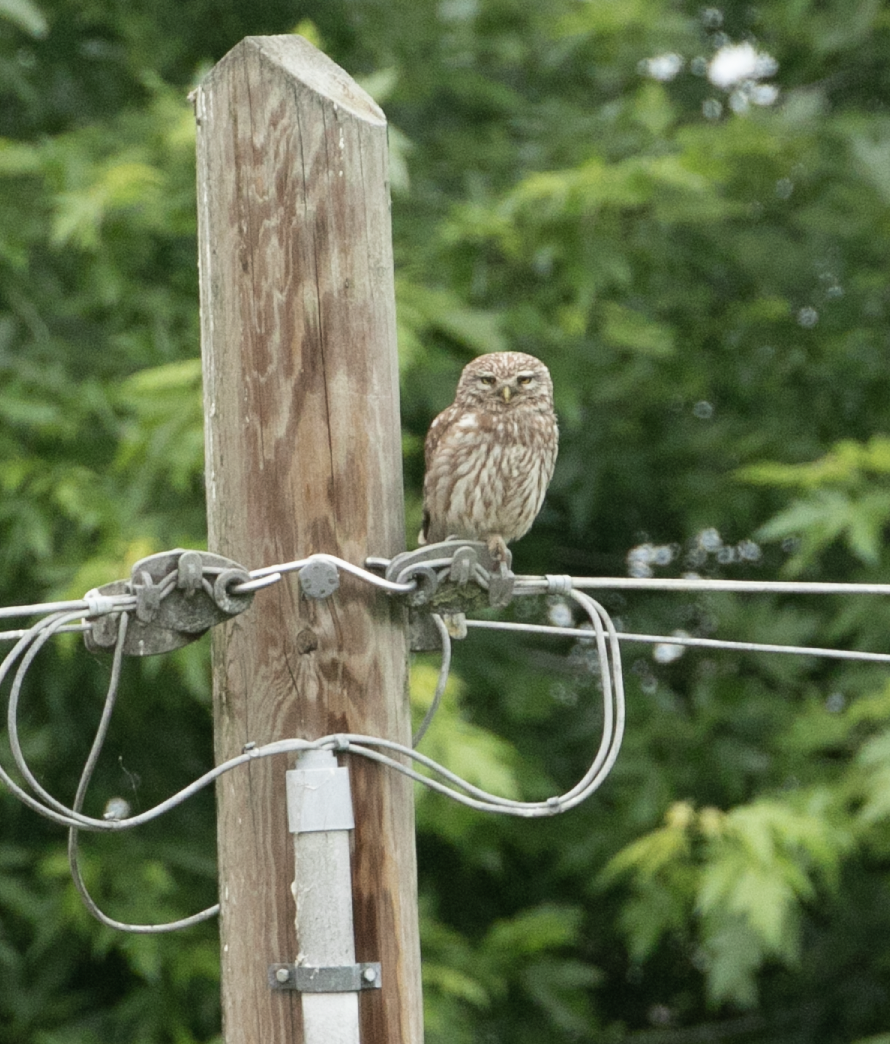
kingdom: Animalia
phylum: Chordata
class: Aves
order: Strigiformes
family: Strigidae
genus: Athene
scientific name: Athene noctua
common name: Little owl
